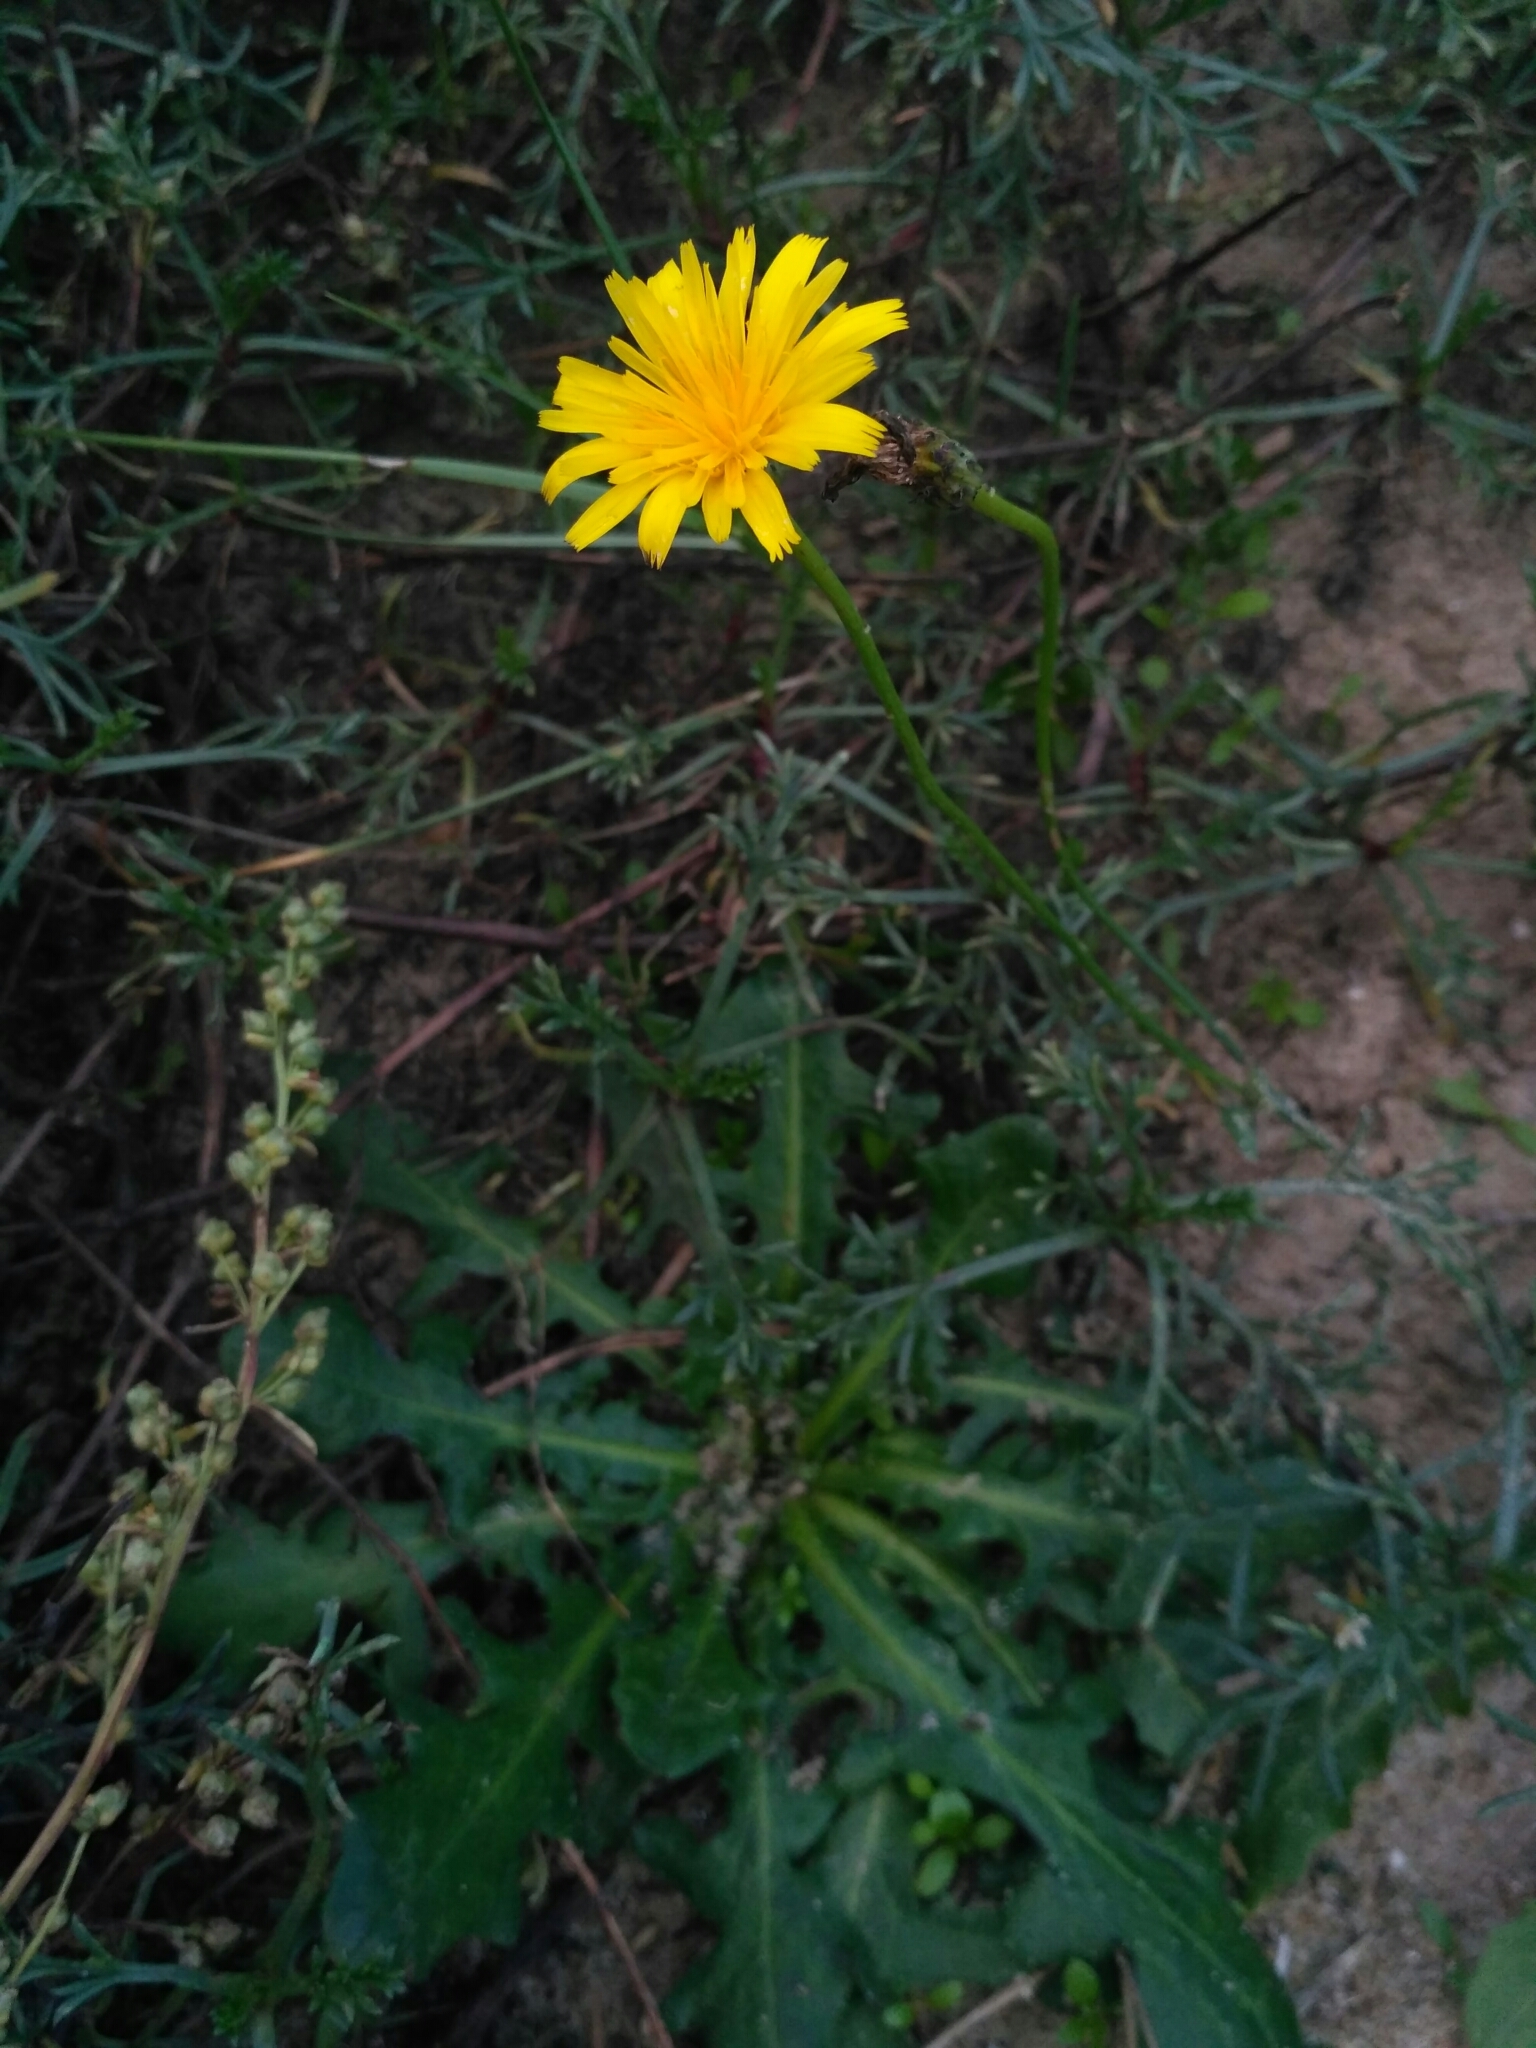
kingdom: Plantae
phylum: Tracheophyta
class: Magnoliopsida
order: Asterales
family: Asteraceae
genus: Hypochaeris
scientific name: Hypochaeris radicata
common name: Flatweed
